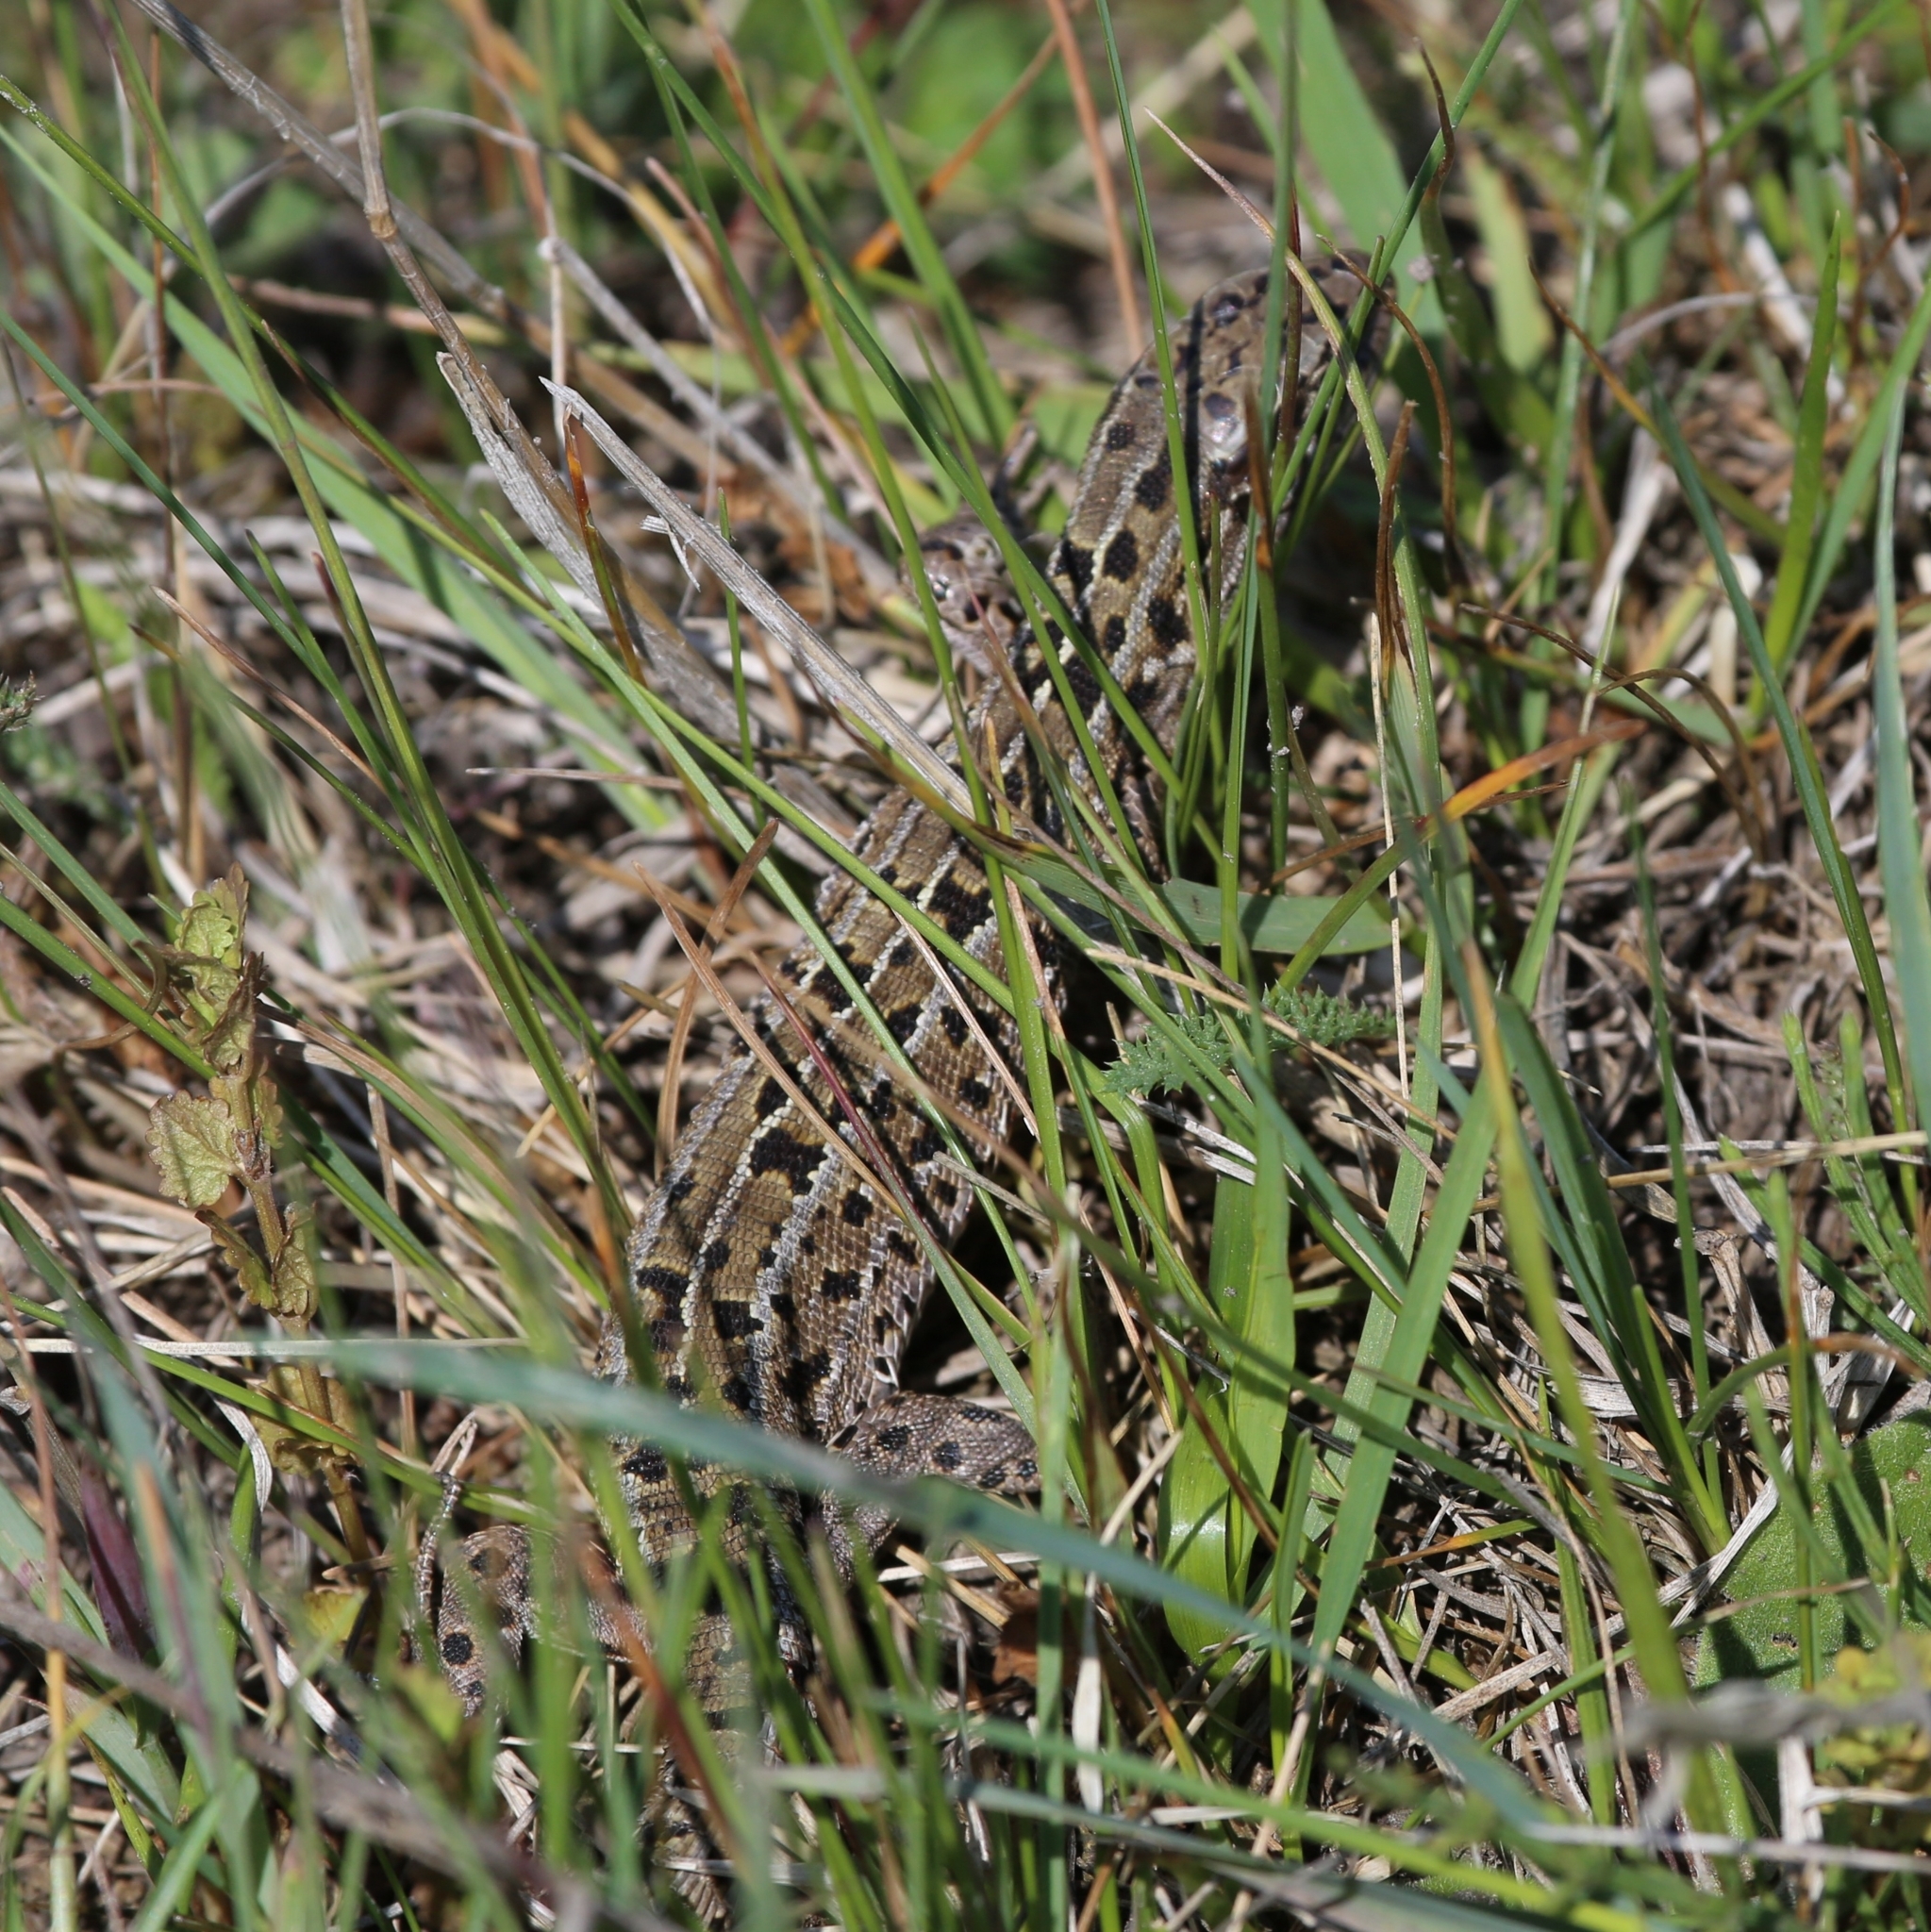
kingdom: Animalia
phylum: Chordata
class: Squamata
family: Lacertidae
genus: Lacerta
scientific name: Lacerta agilis
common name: Sand lizard
